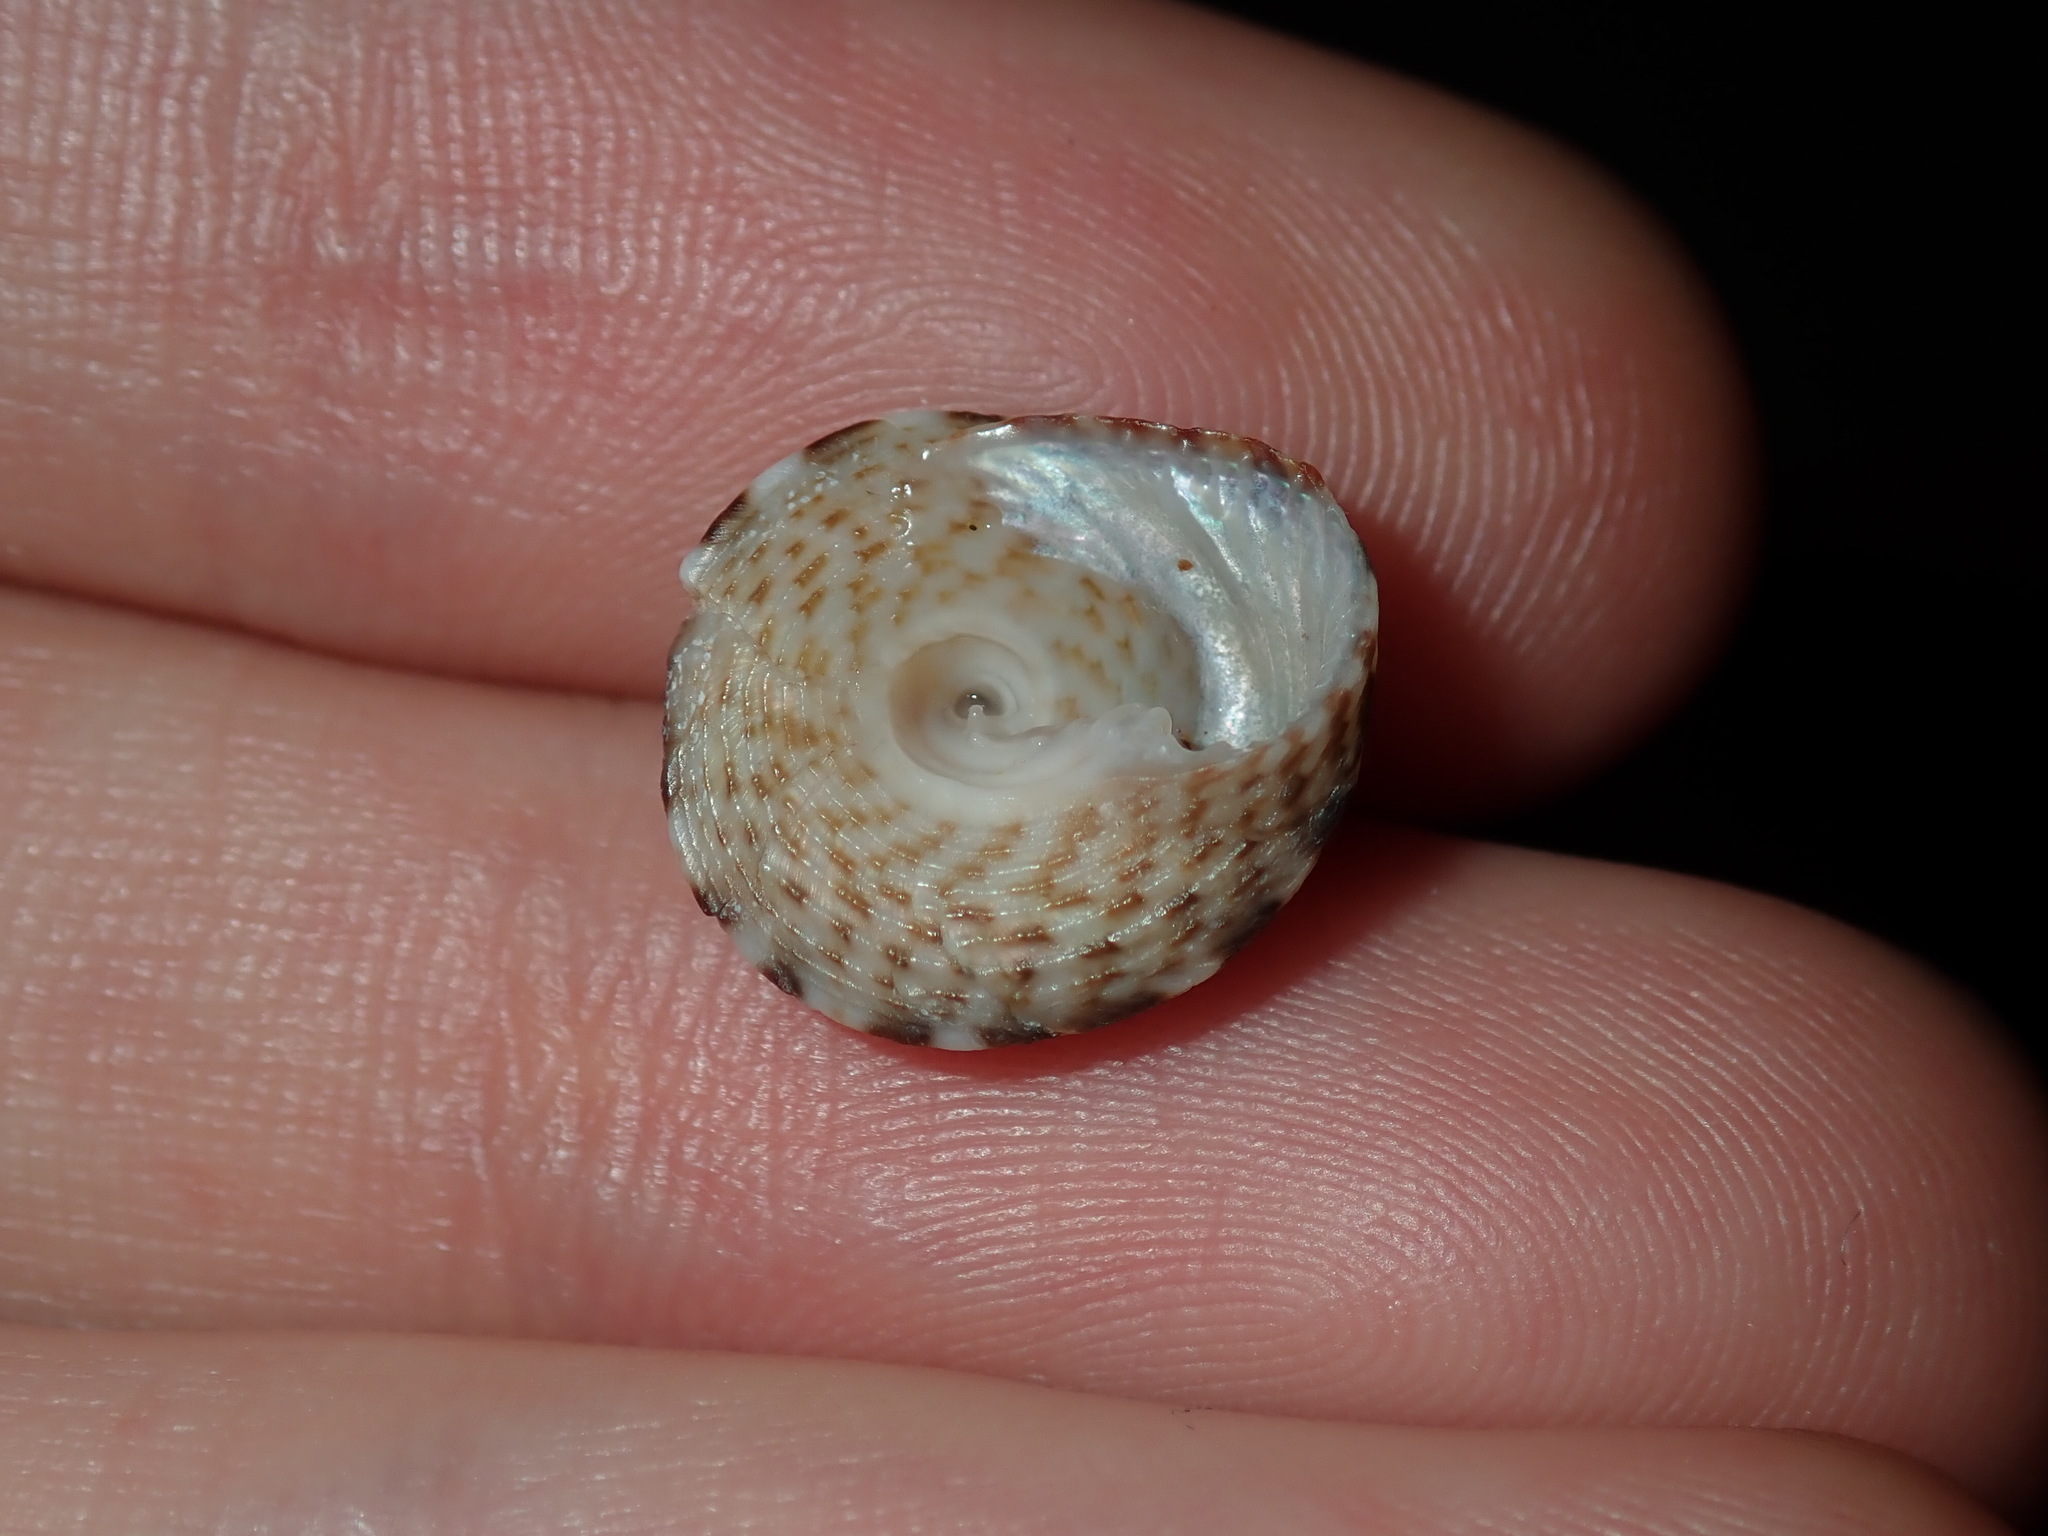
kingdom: Animalia
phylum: Mollusca
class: Gastropoda
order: Trochida
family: Trochidae
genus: Clanculus
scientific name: Clanculus brunneus
